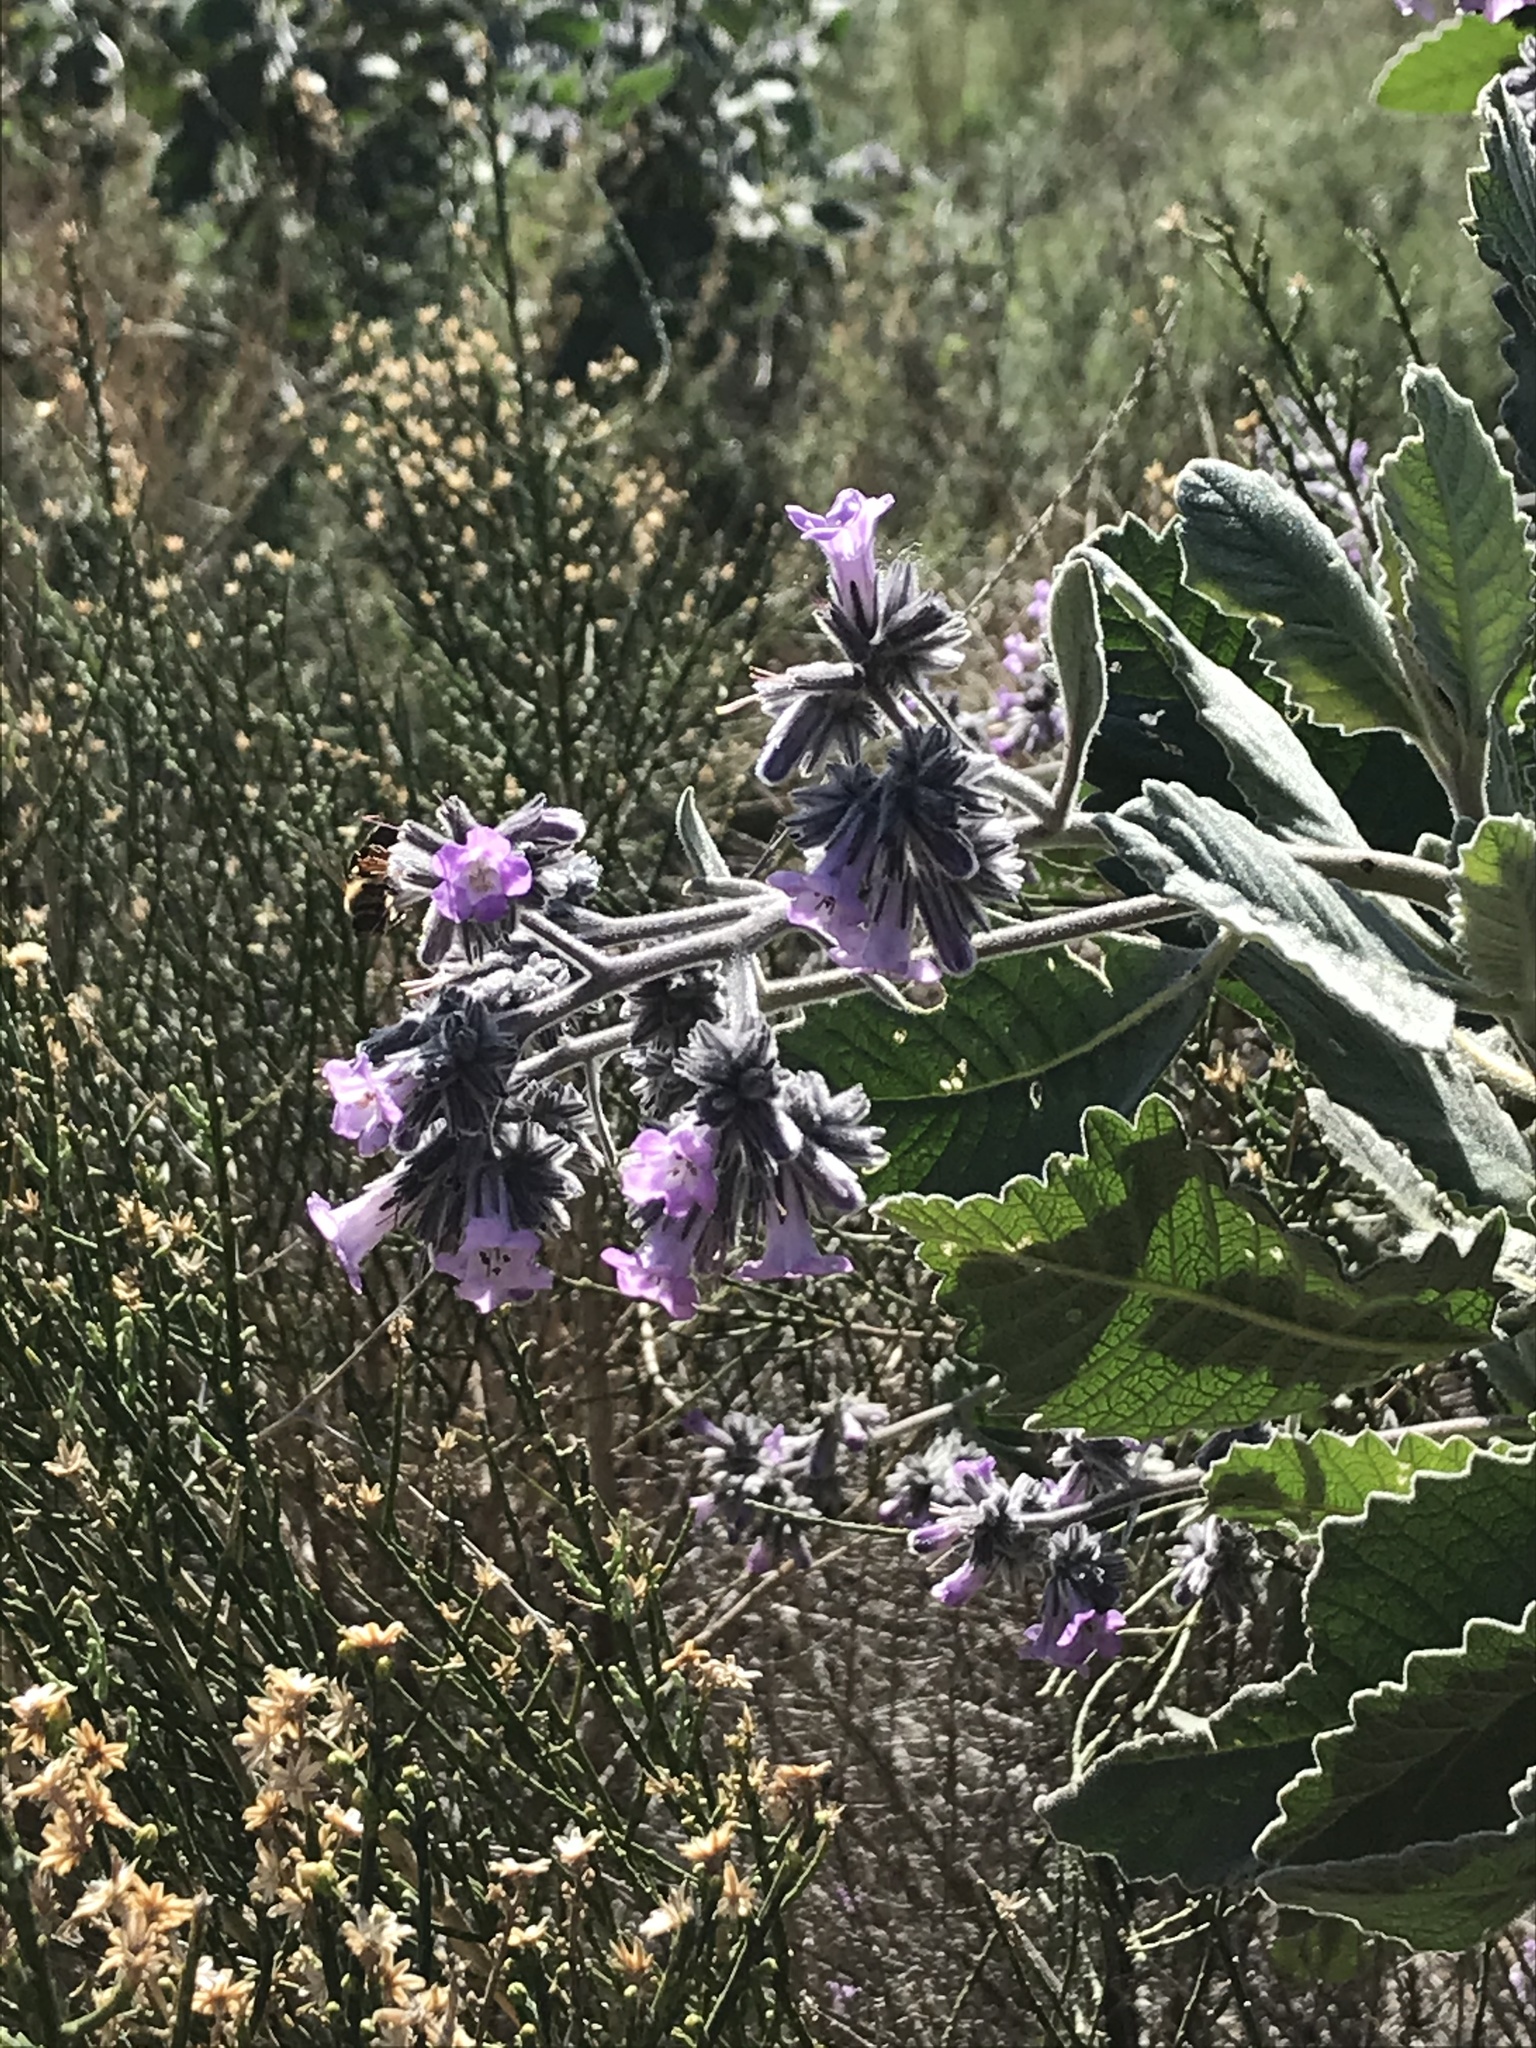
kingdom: Plantae
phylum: Tracheophyta
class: Magnoliopsida
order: Boraginales
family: Namaceae
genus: Eriodictyon
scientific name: Eriodictyon crassifolium
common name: Thick-leaf yerba-santa
